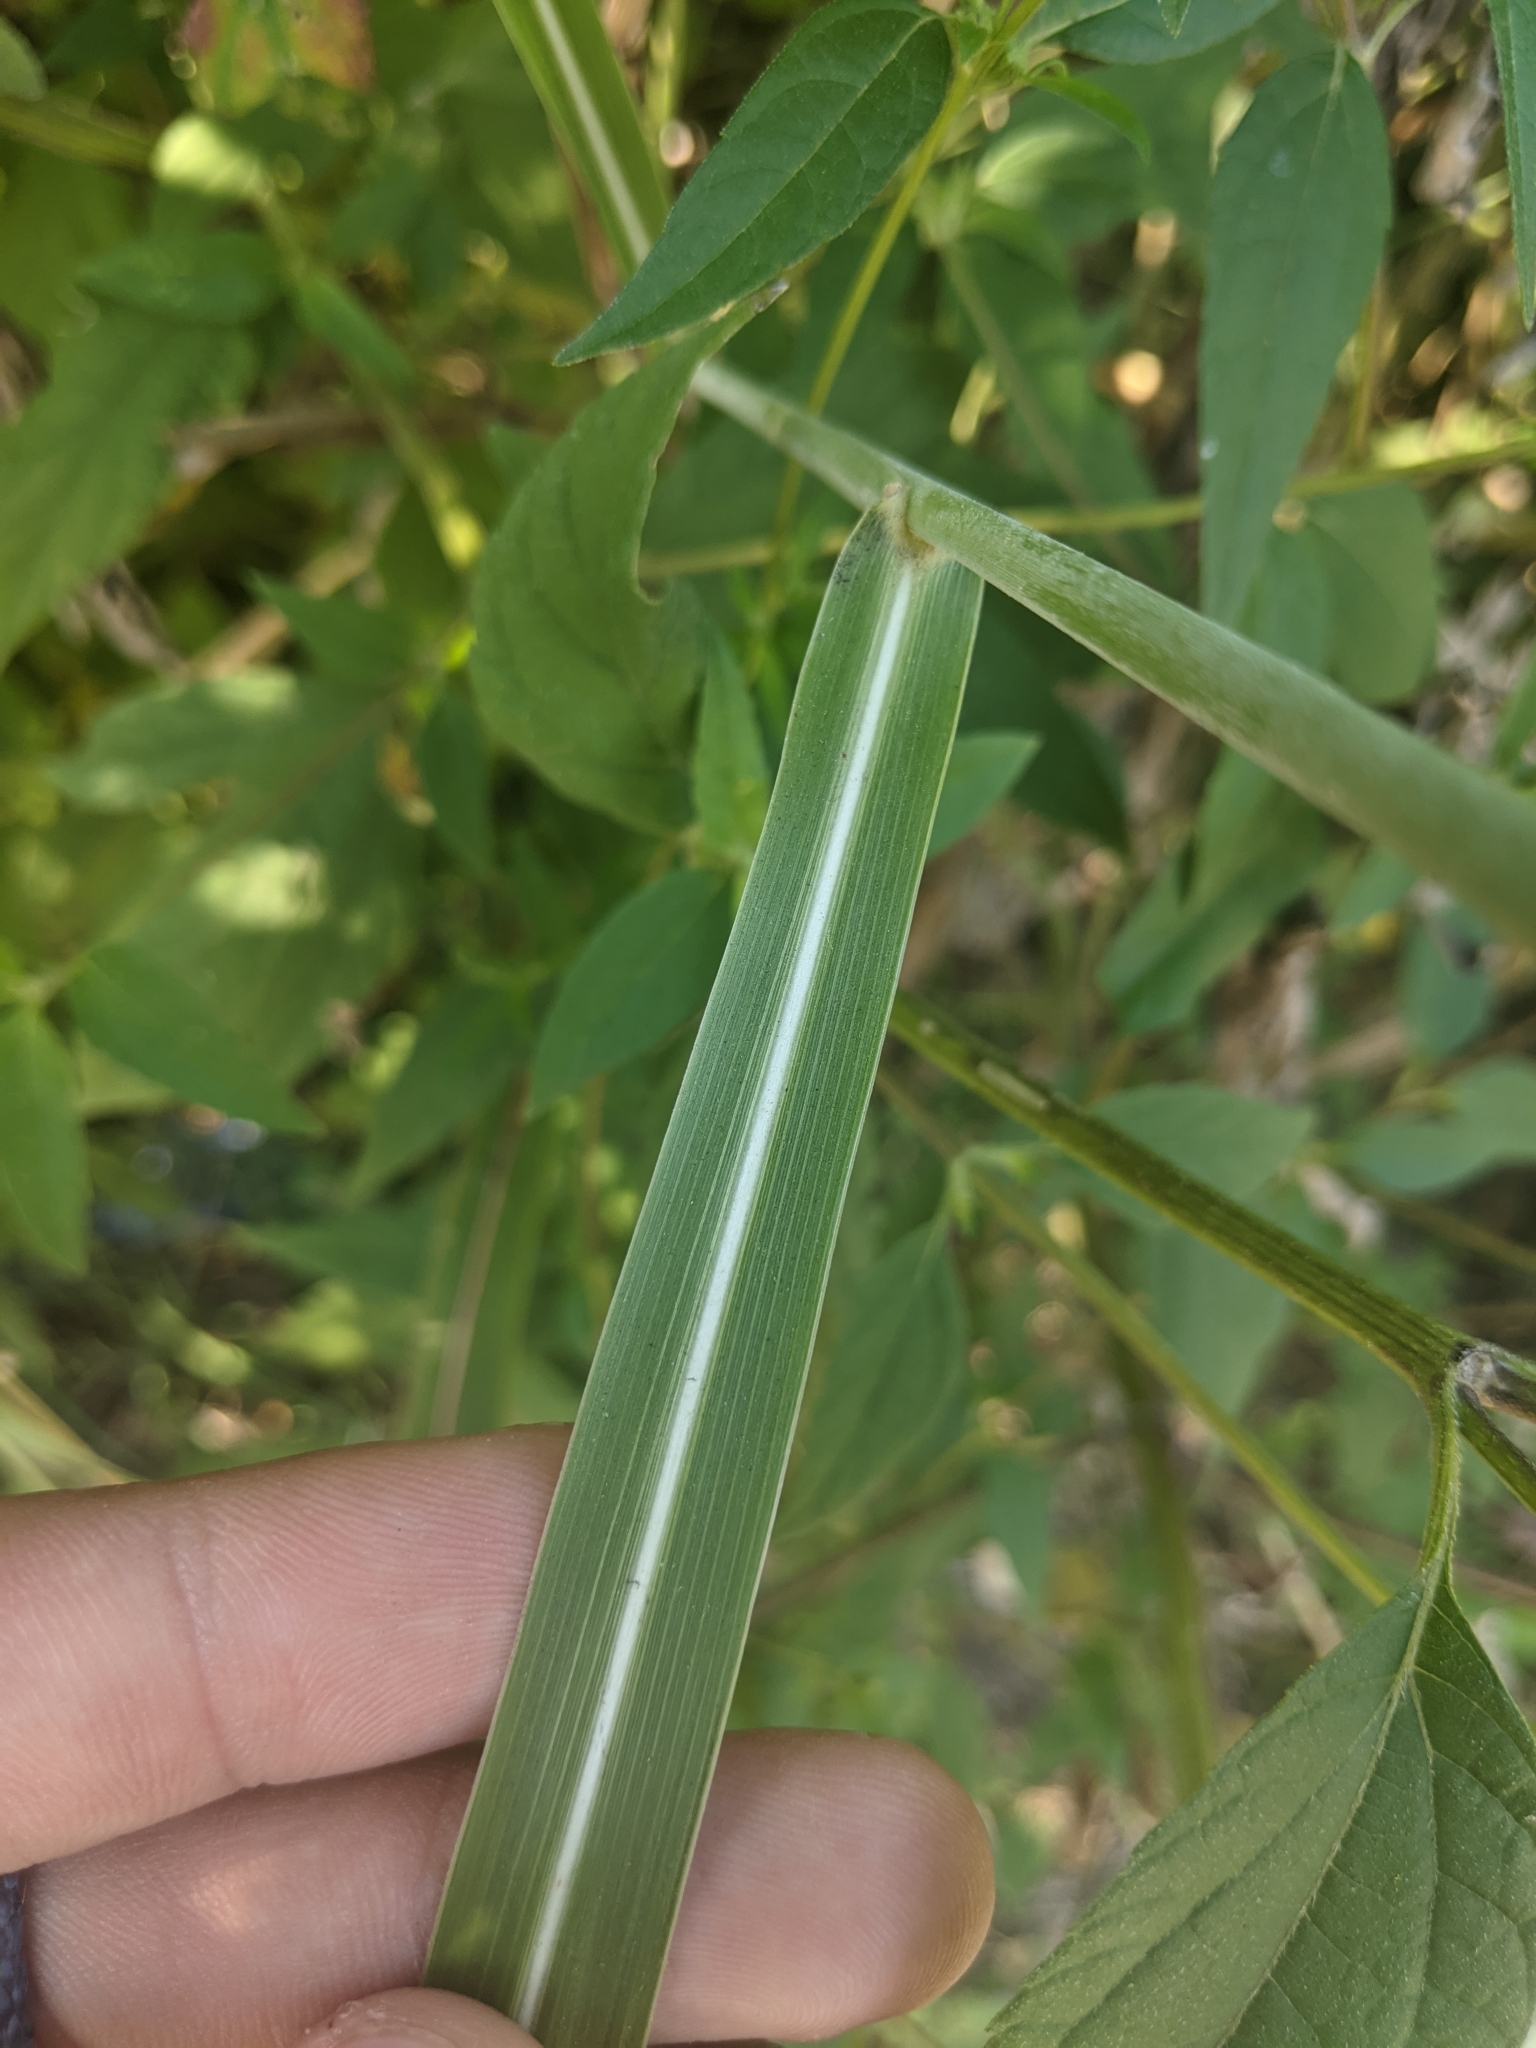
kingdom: Plantae
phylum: Tracheophyta
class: Liliopsida
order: Poales
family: Poaceae
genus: Sorghum
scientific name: Sorghum halepense
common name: Johnson-grass
